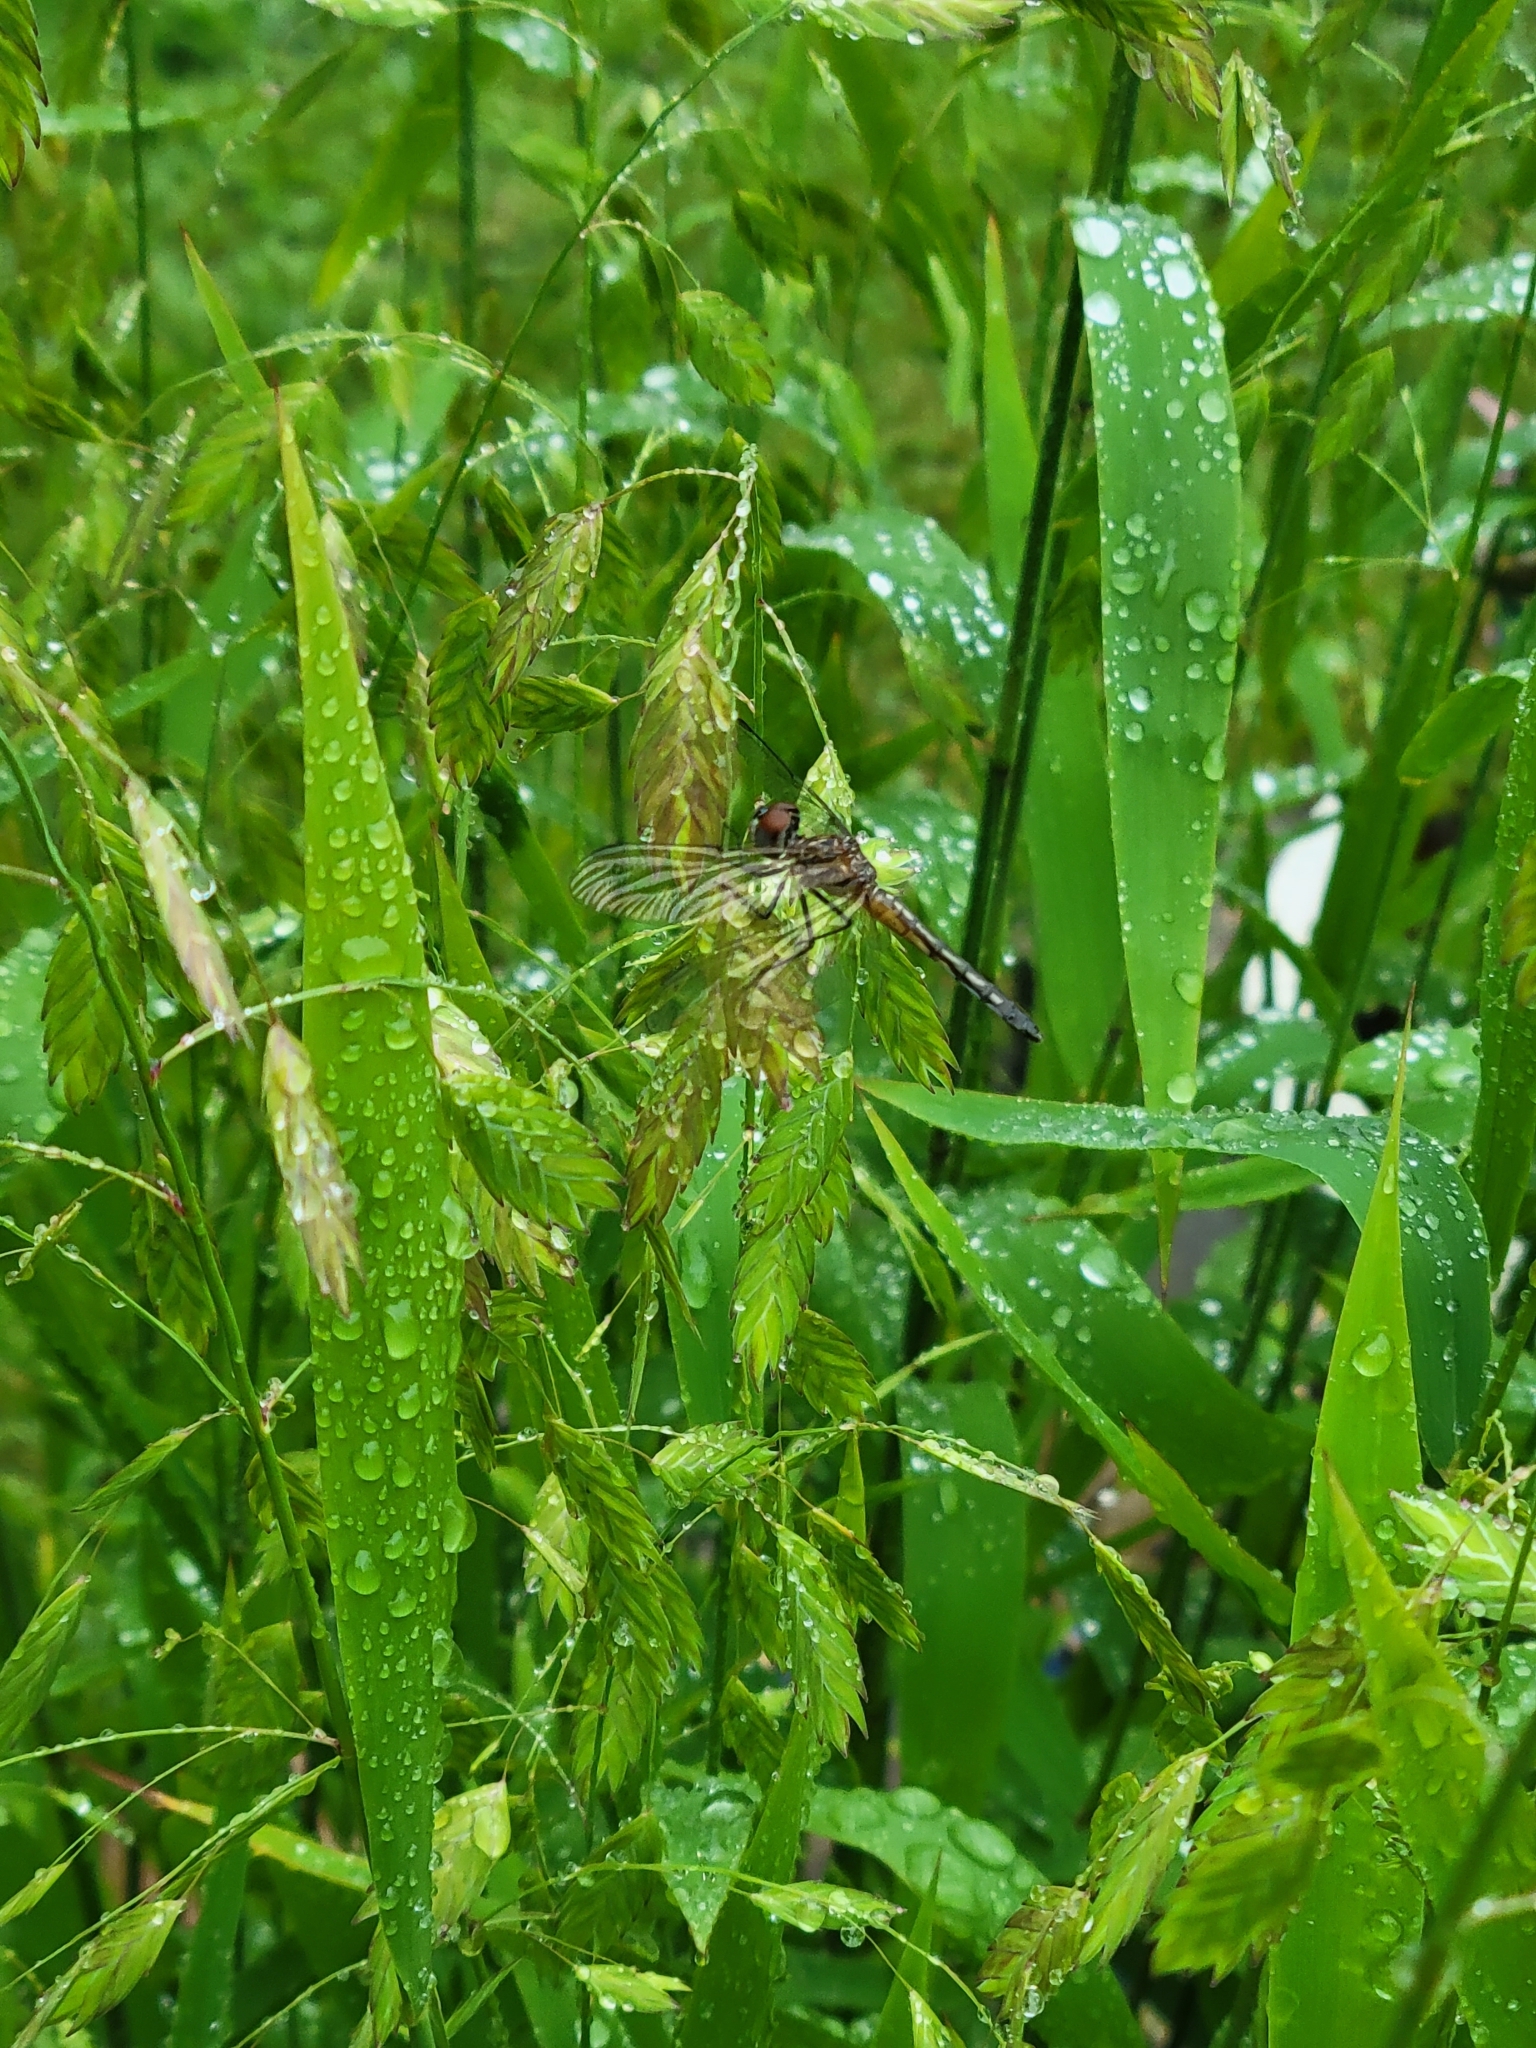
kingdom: Animalia
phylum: Arthropoda
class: Insecta
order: Odonata
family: Libellulidae
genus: Pachydiplax
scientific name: Pachydiplax longipennis
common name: Blue dasher
